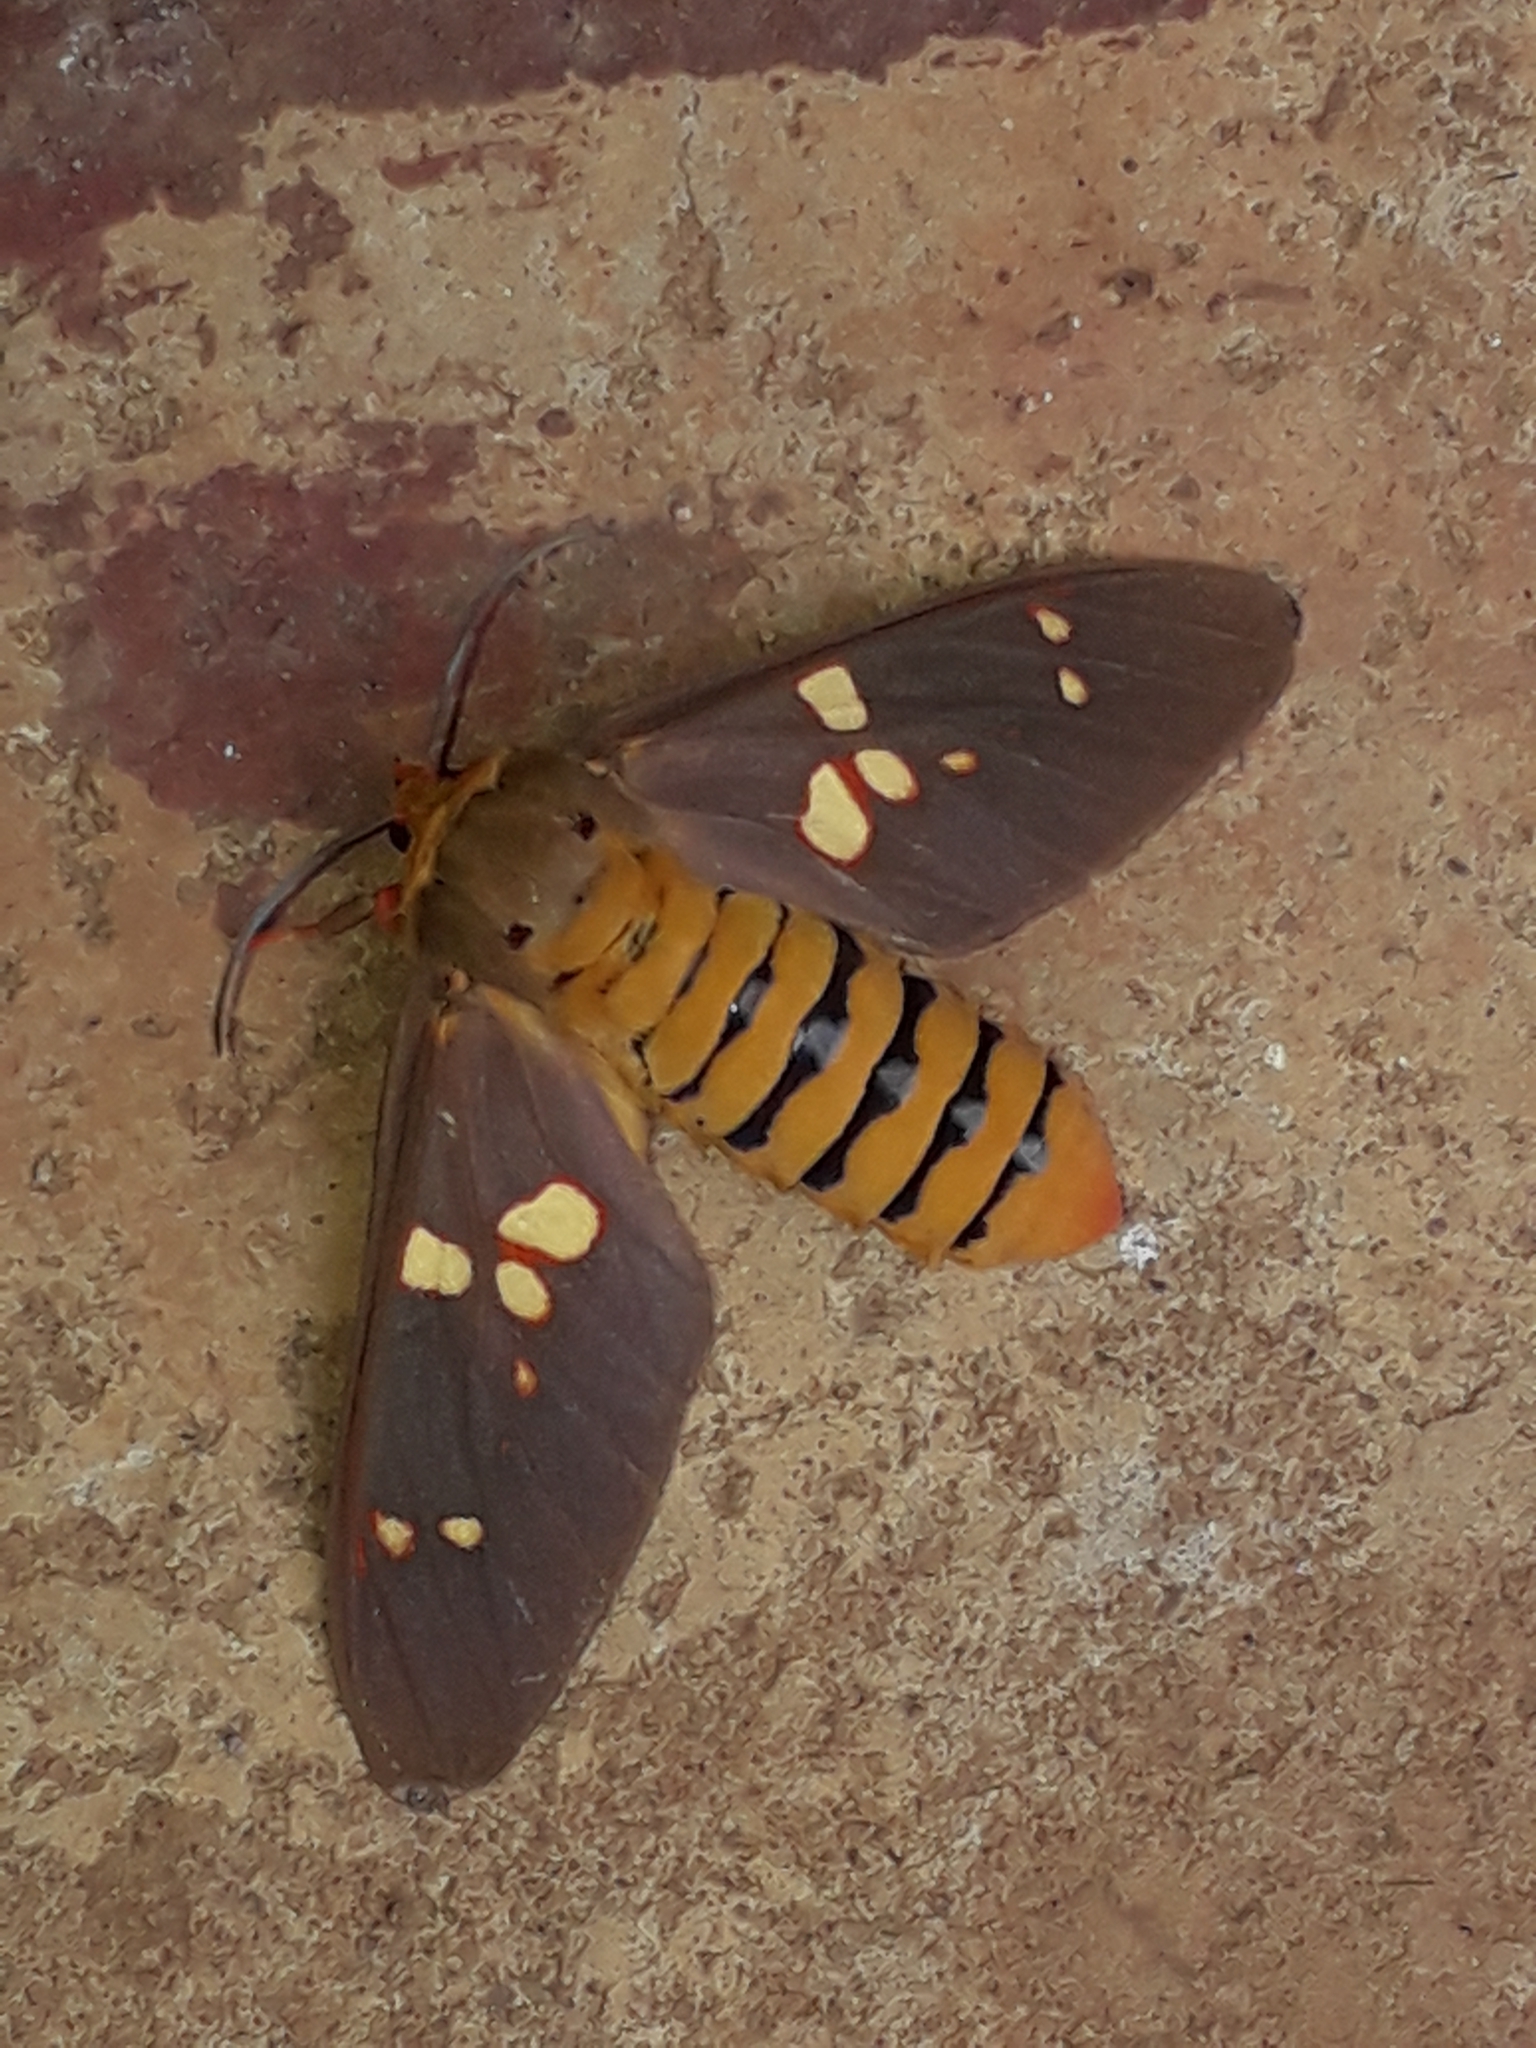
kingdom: Animalia
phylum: Arthropoda
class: Insecta
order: Lepidoptera
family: Erebidae
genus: Balacra
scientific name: Balacra batesi
